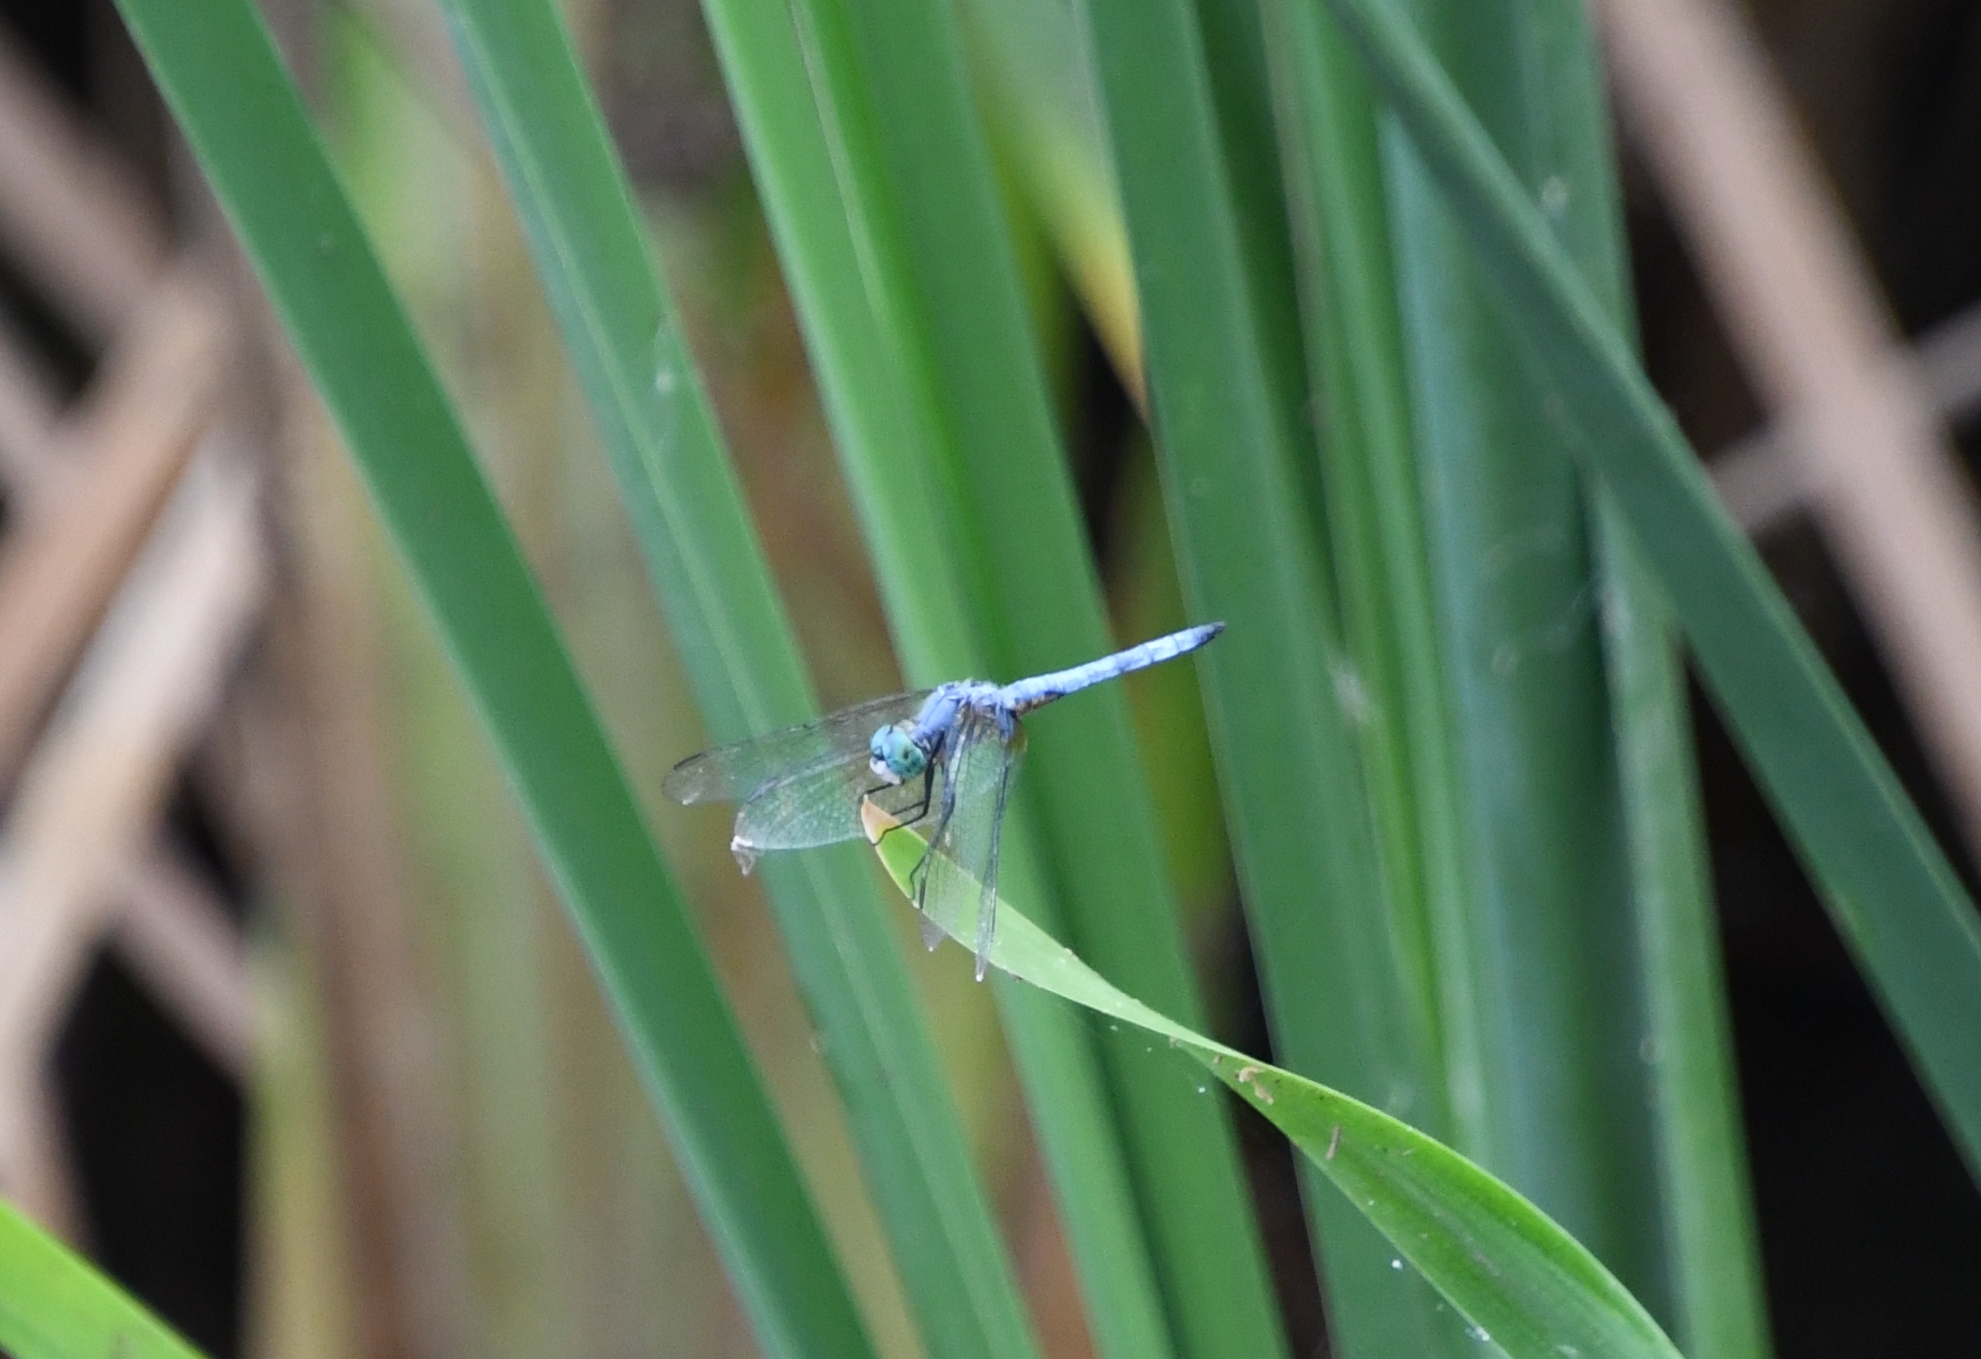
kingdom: Animalia
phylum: Arthropoda
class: Insecta
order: Odonata
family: Libellulidae
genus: Pachydiplax
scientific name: Pachydiplax longipennis
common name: Blue dasher
